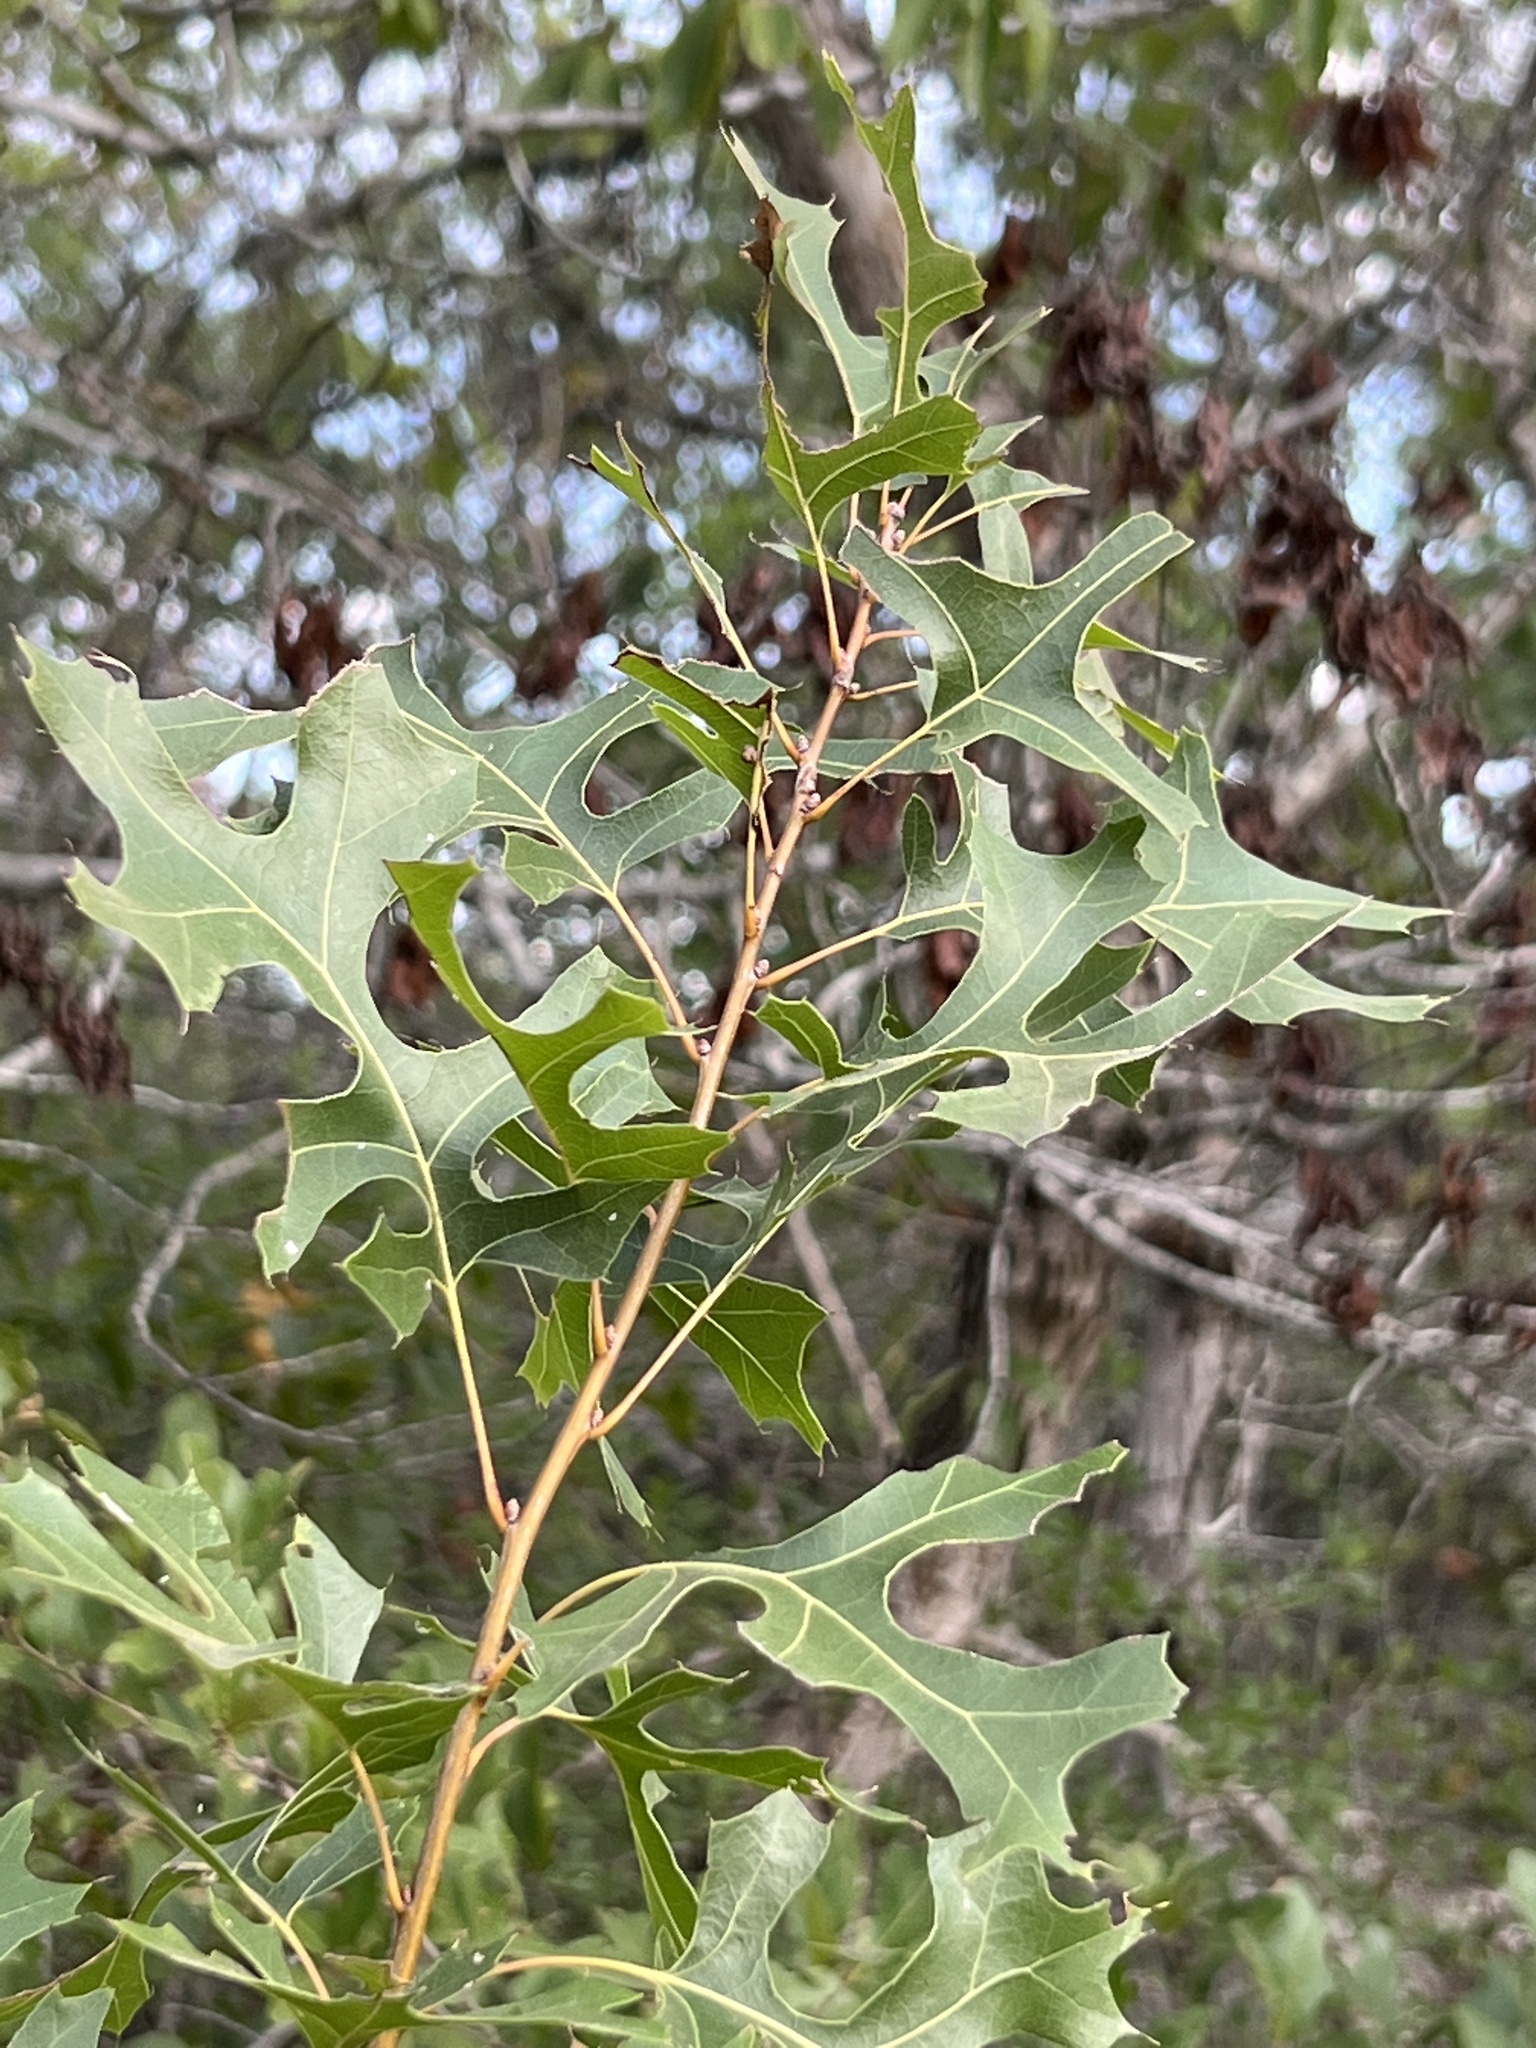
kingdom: Plantae
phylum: Tracheophyta
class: Magnoliopsida
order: Fagales
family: Fagaceae
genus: Quercus
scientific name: Quercus buckleyi
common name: Buckley oak
